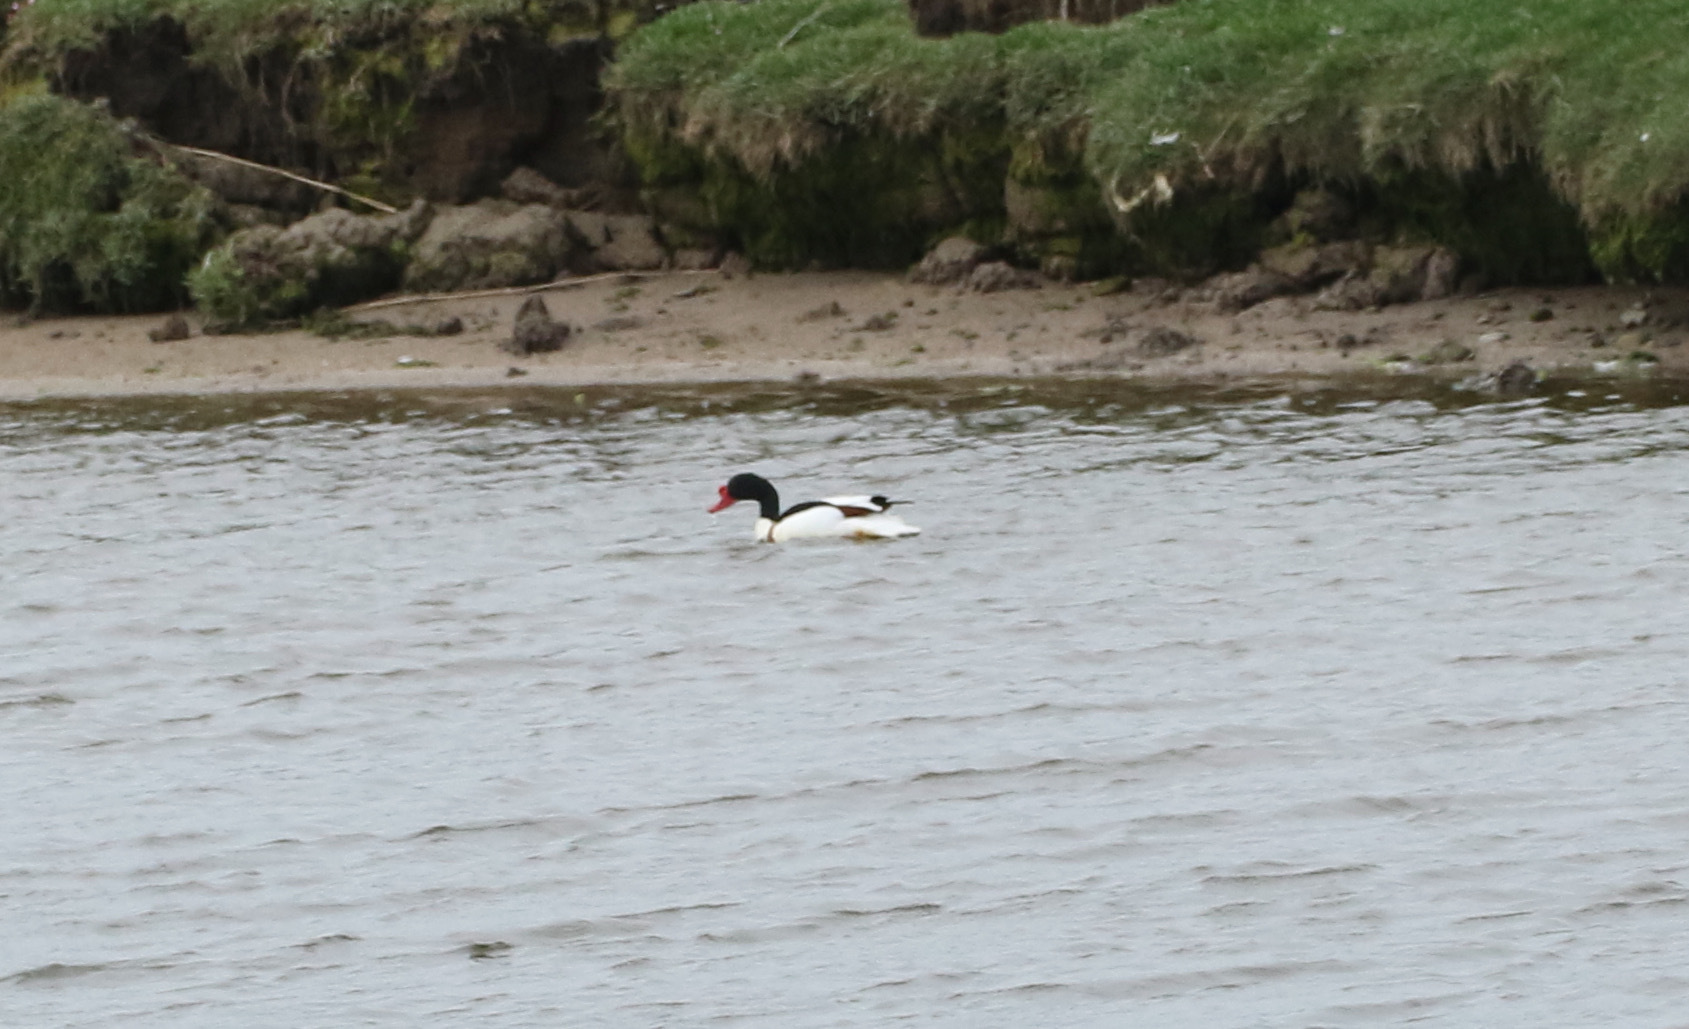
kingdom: Animalia
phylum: Chordata
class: Aves
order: Anseriformes
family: Anatidae
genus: Tadorna
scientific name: Tadorna tadorna
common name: Common shelduck
